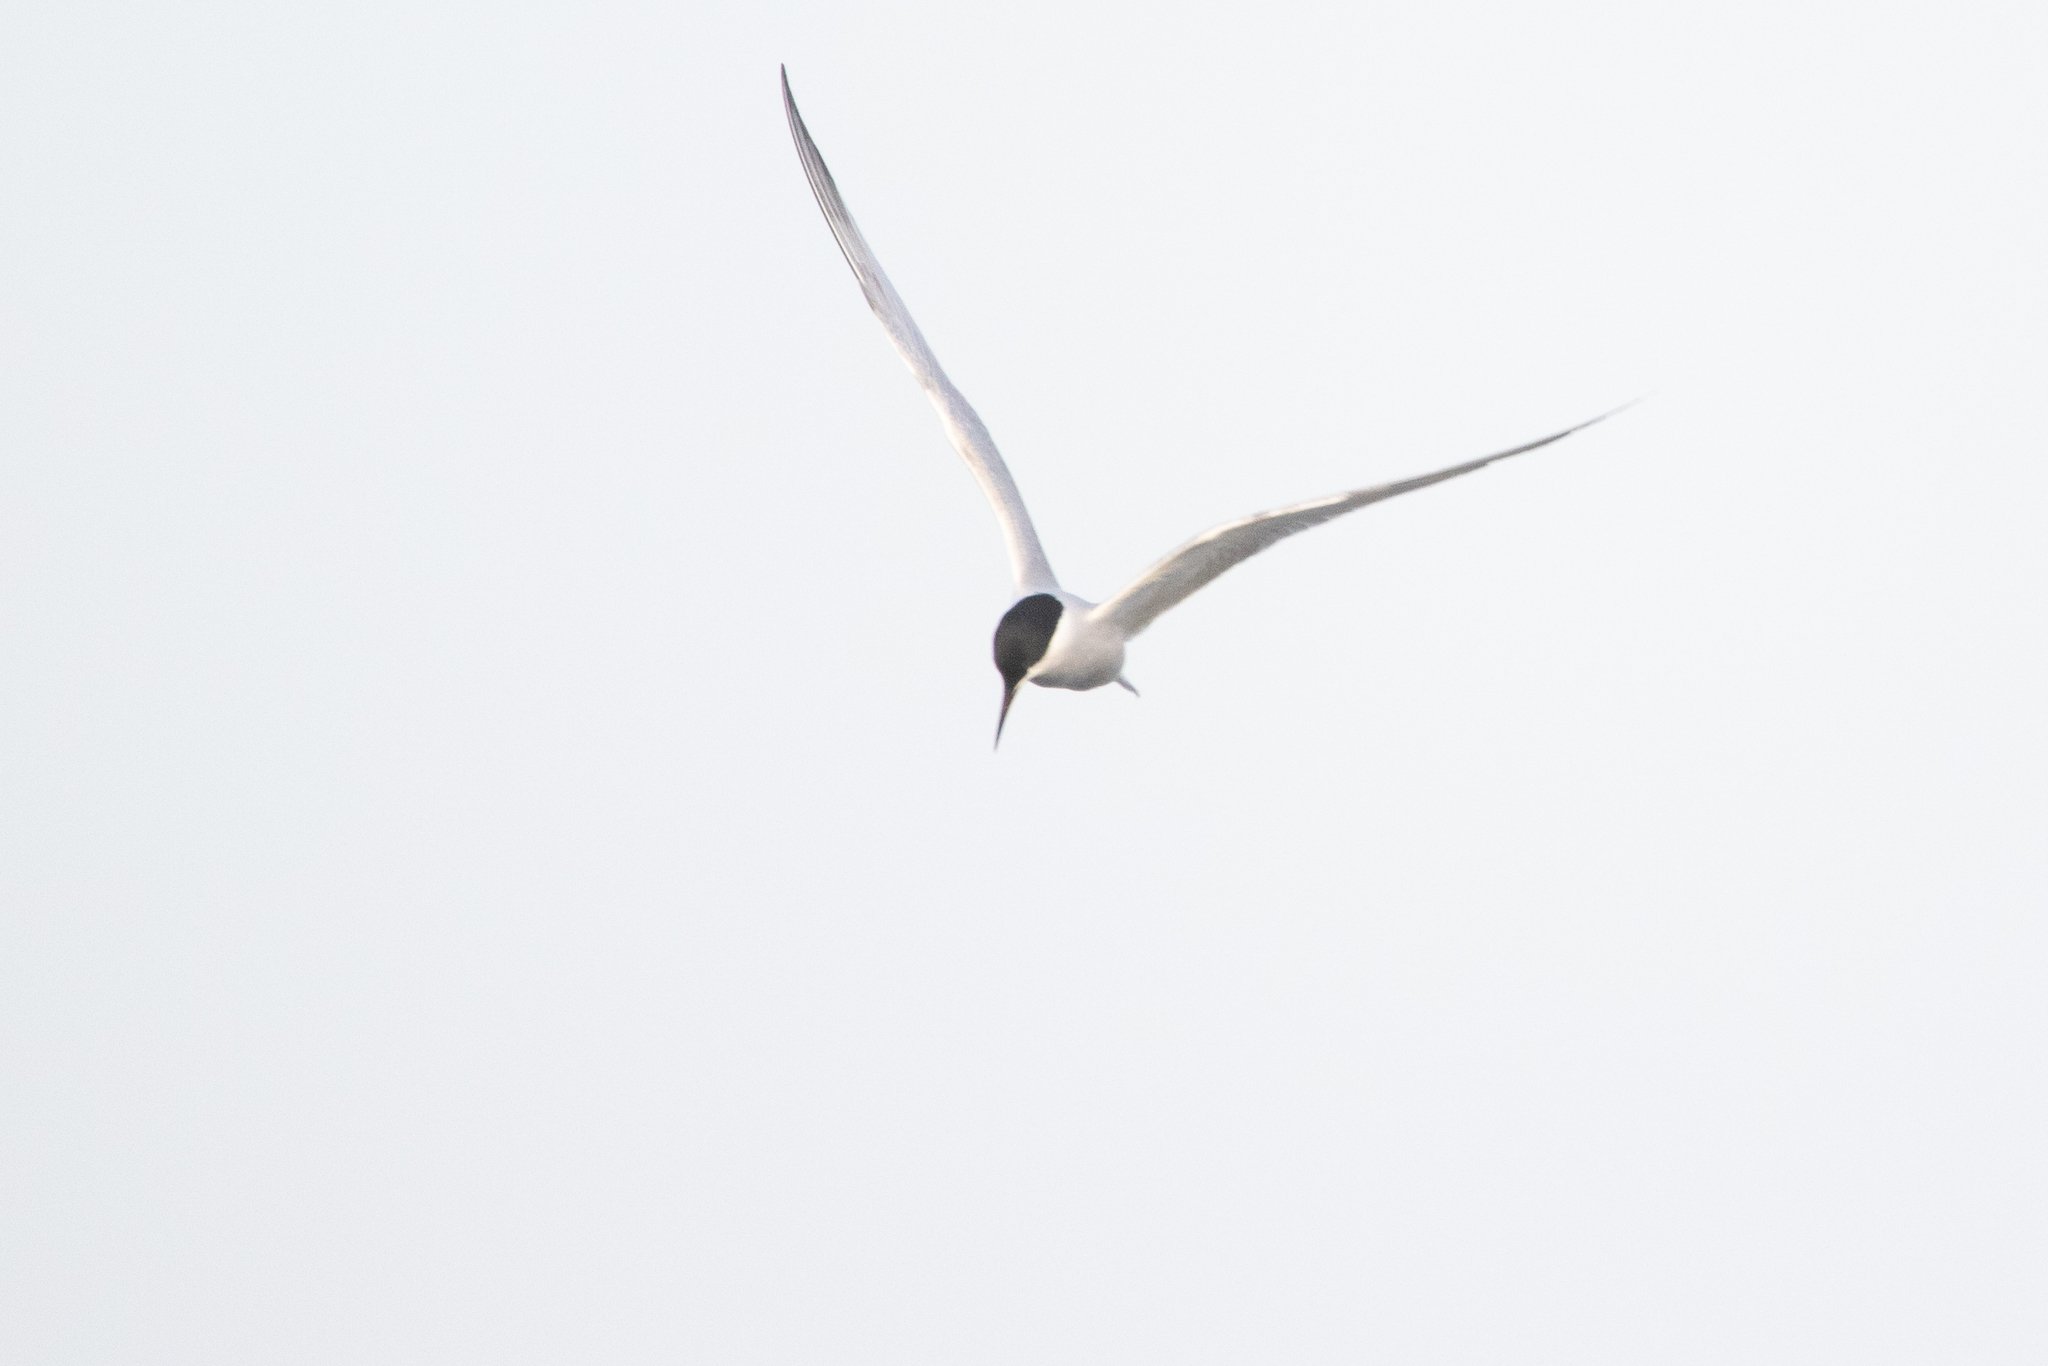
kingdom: Animalia
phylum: Chordata
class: Aves
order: Charadriiformes
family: Laridae
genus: Sterna
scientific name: Sterna hirundo
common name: Common tern
